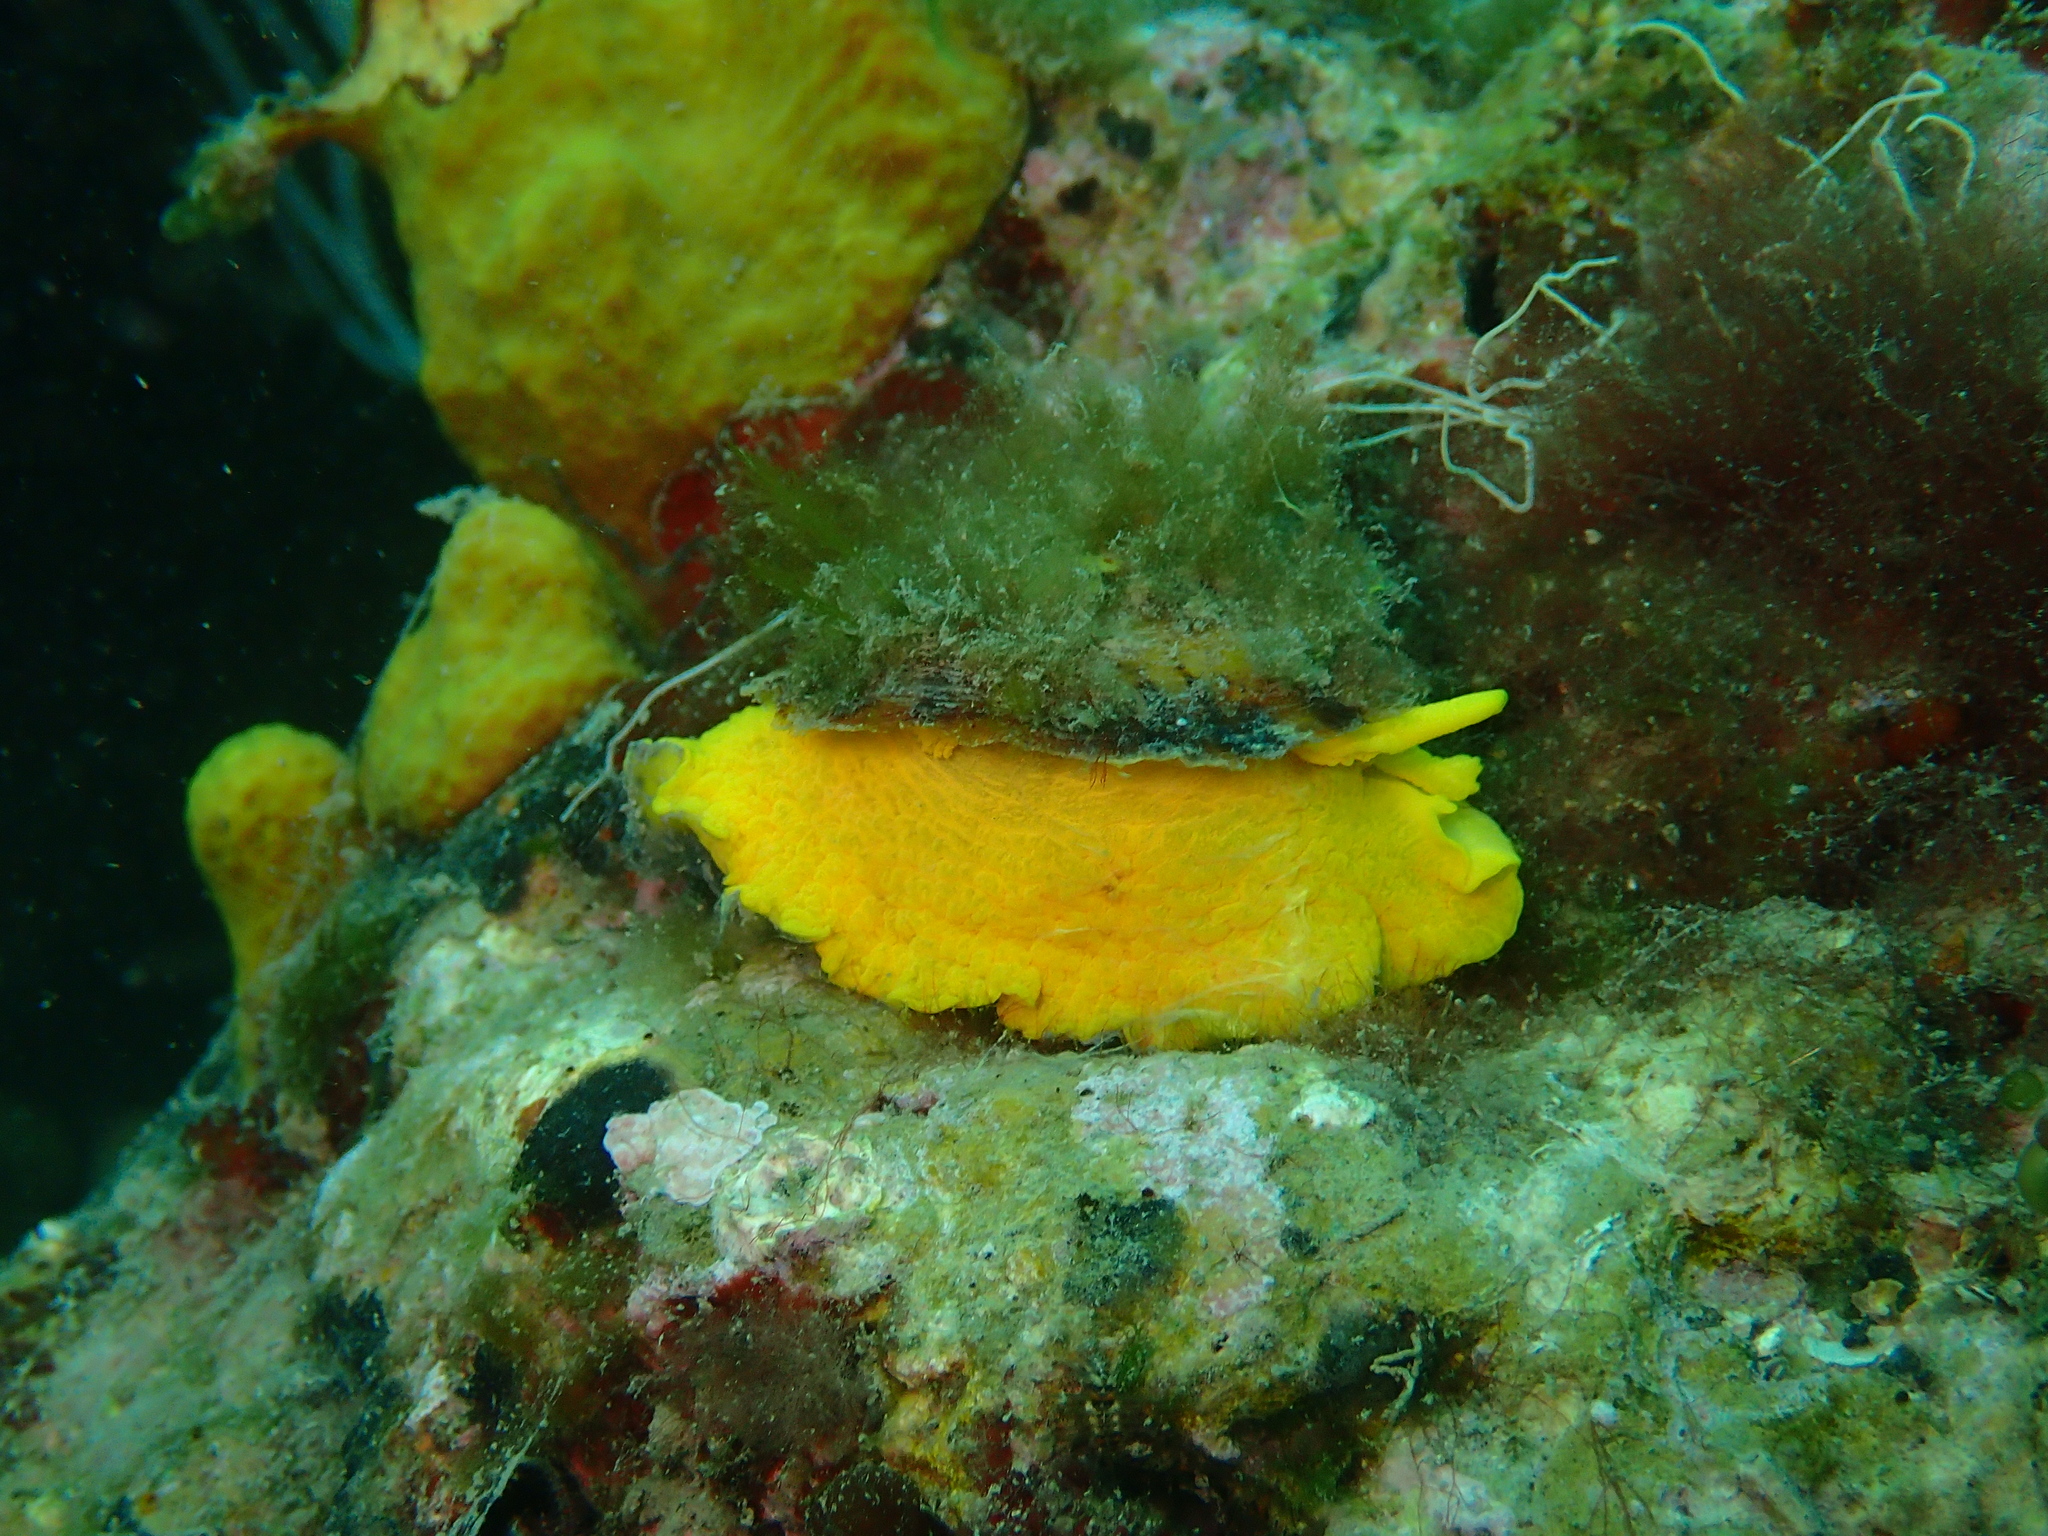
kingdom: Animalia
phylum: Mollusca
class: Gastropoda
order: Umbraculida
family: Tylodinidae
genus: Tylodina
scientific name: Tylodina perversa
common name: Yellow tylodina
